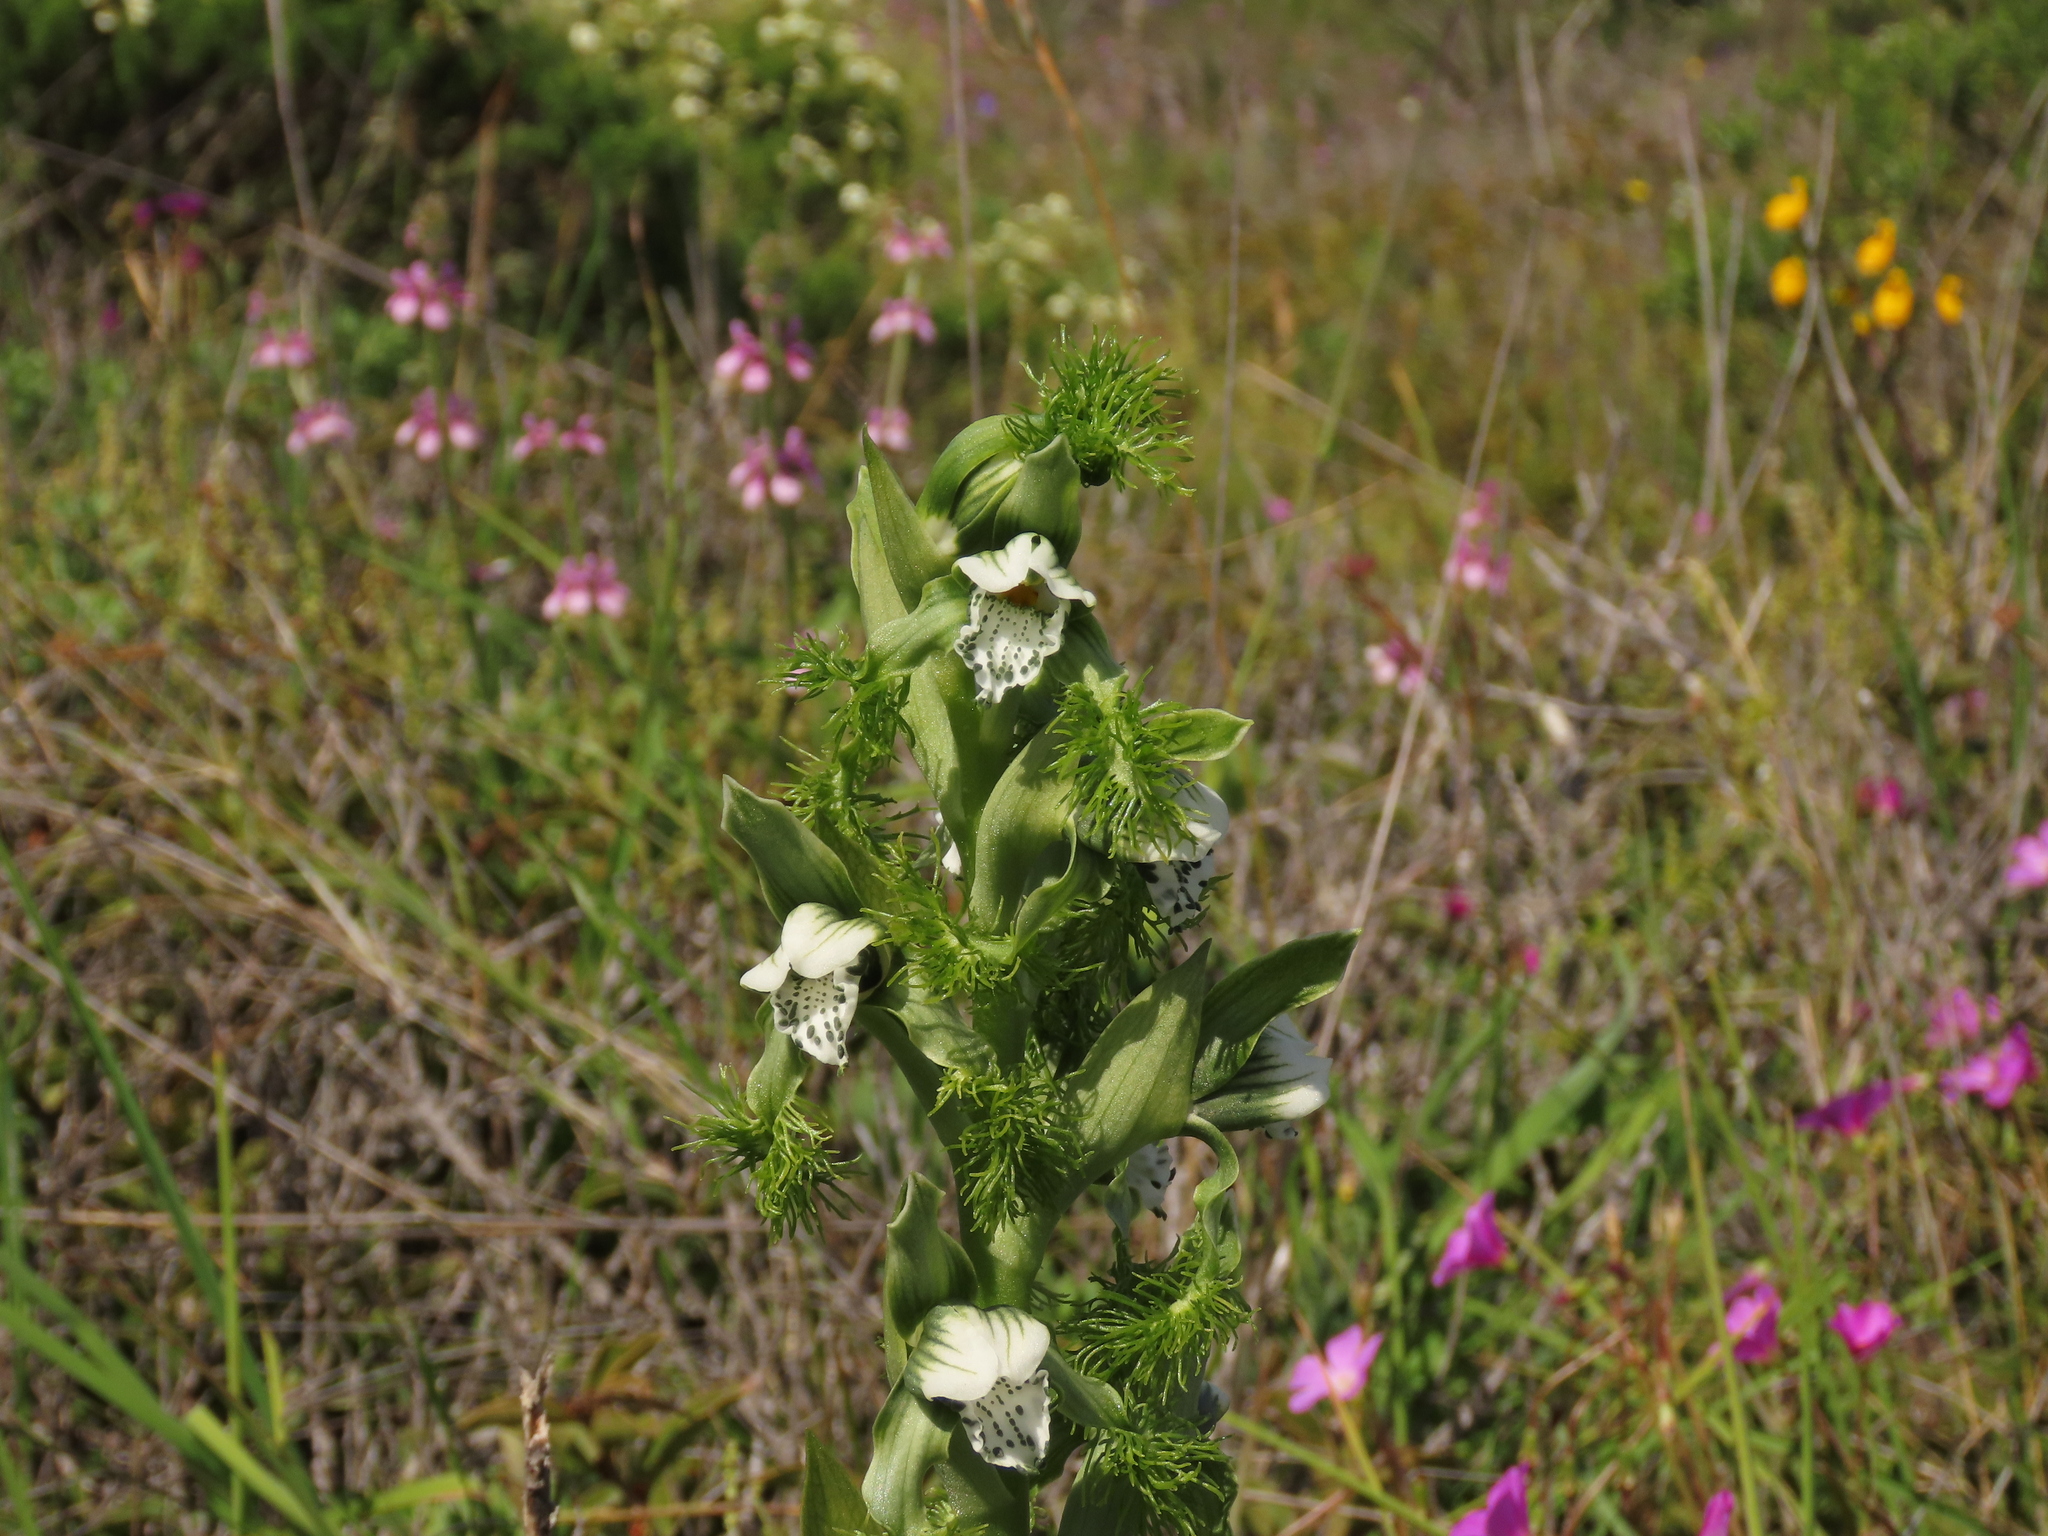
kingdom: Plantae
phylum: Tracheophyta
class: Liliopsida
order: Asparagales
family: Orchidaceae
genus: Bipinnula
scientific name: Bipinnula fimbriata
